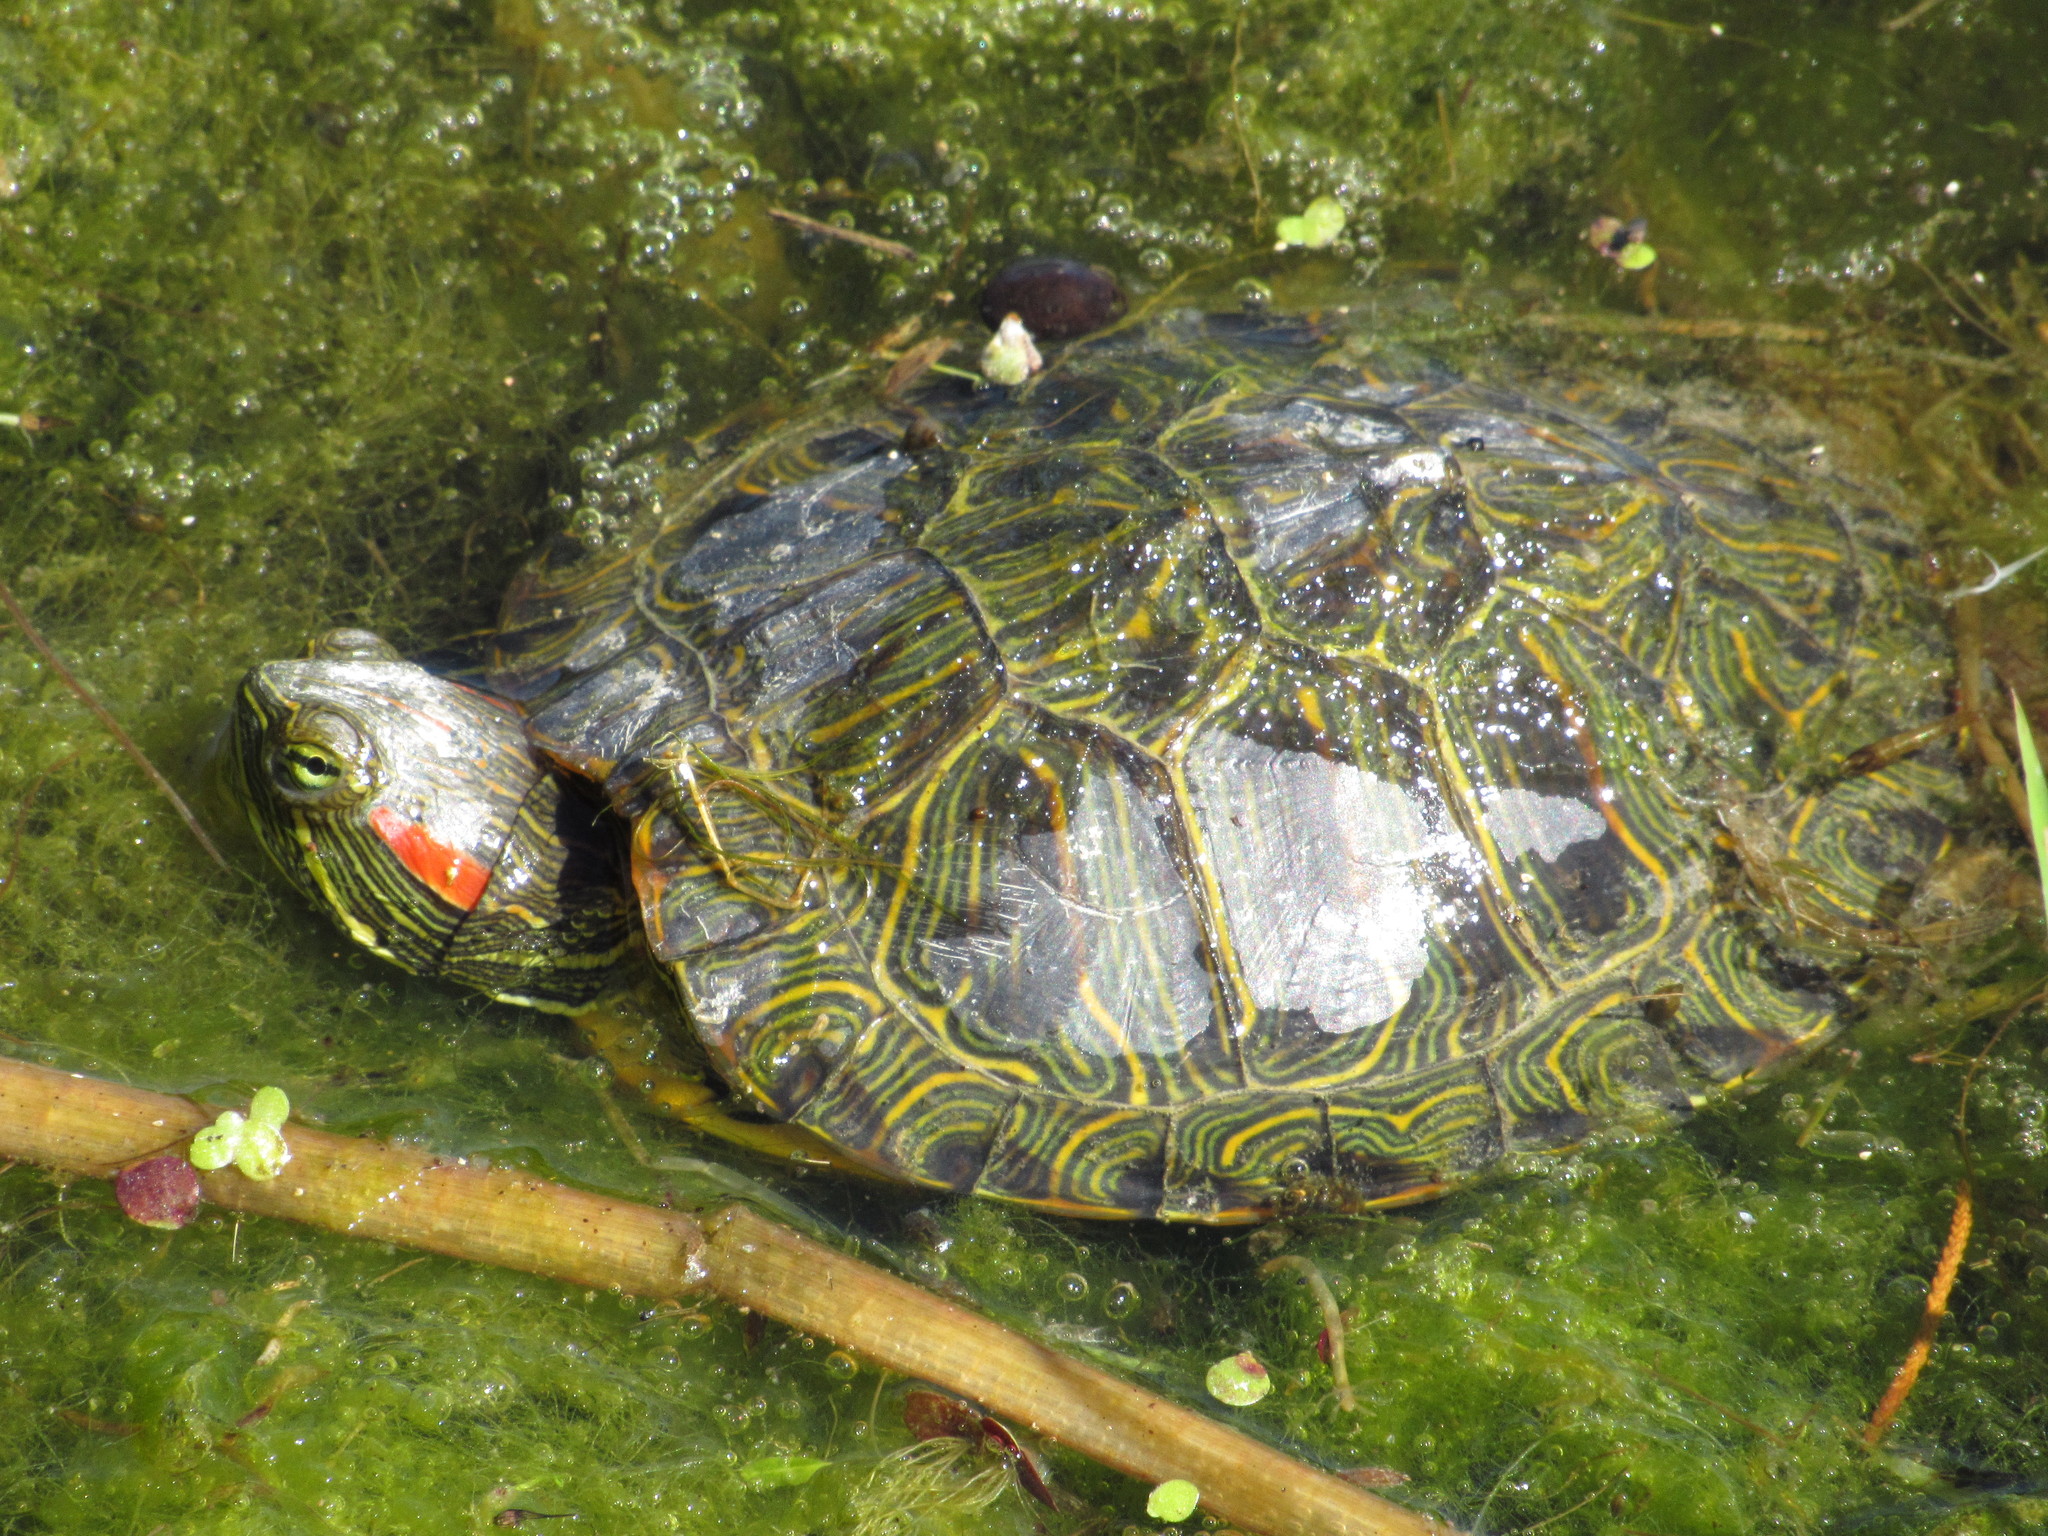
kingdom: Animalia
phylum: Chordata
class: Testudines
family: Emydidae
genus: Trachemys
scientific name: Trachemys scripta
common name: Slider
